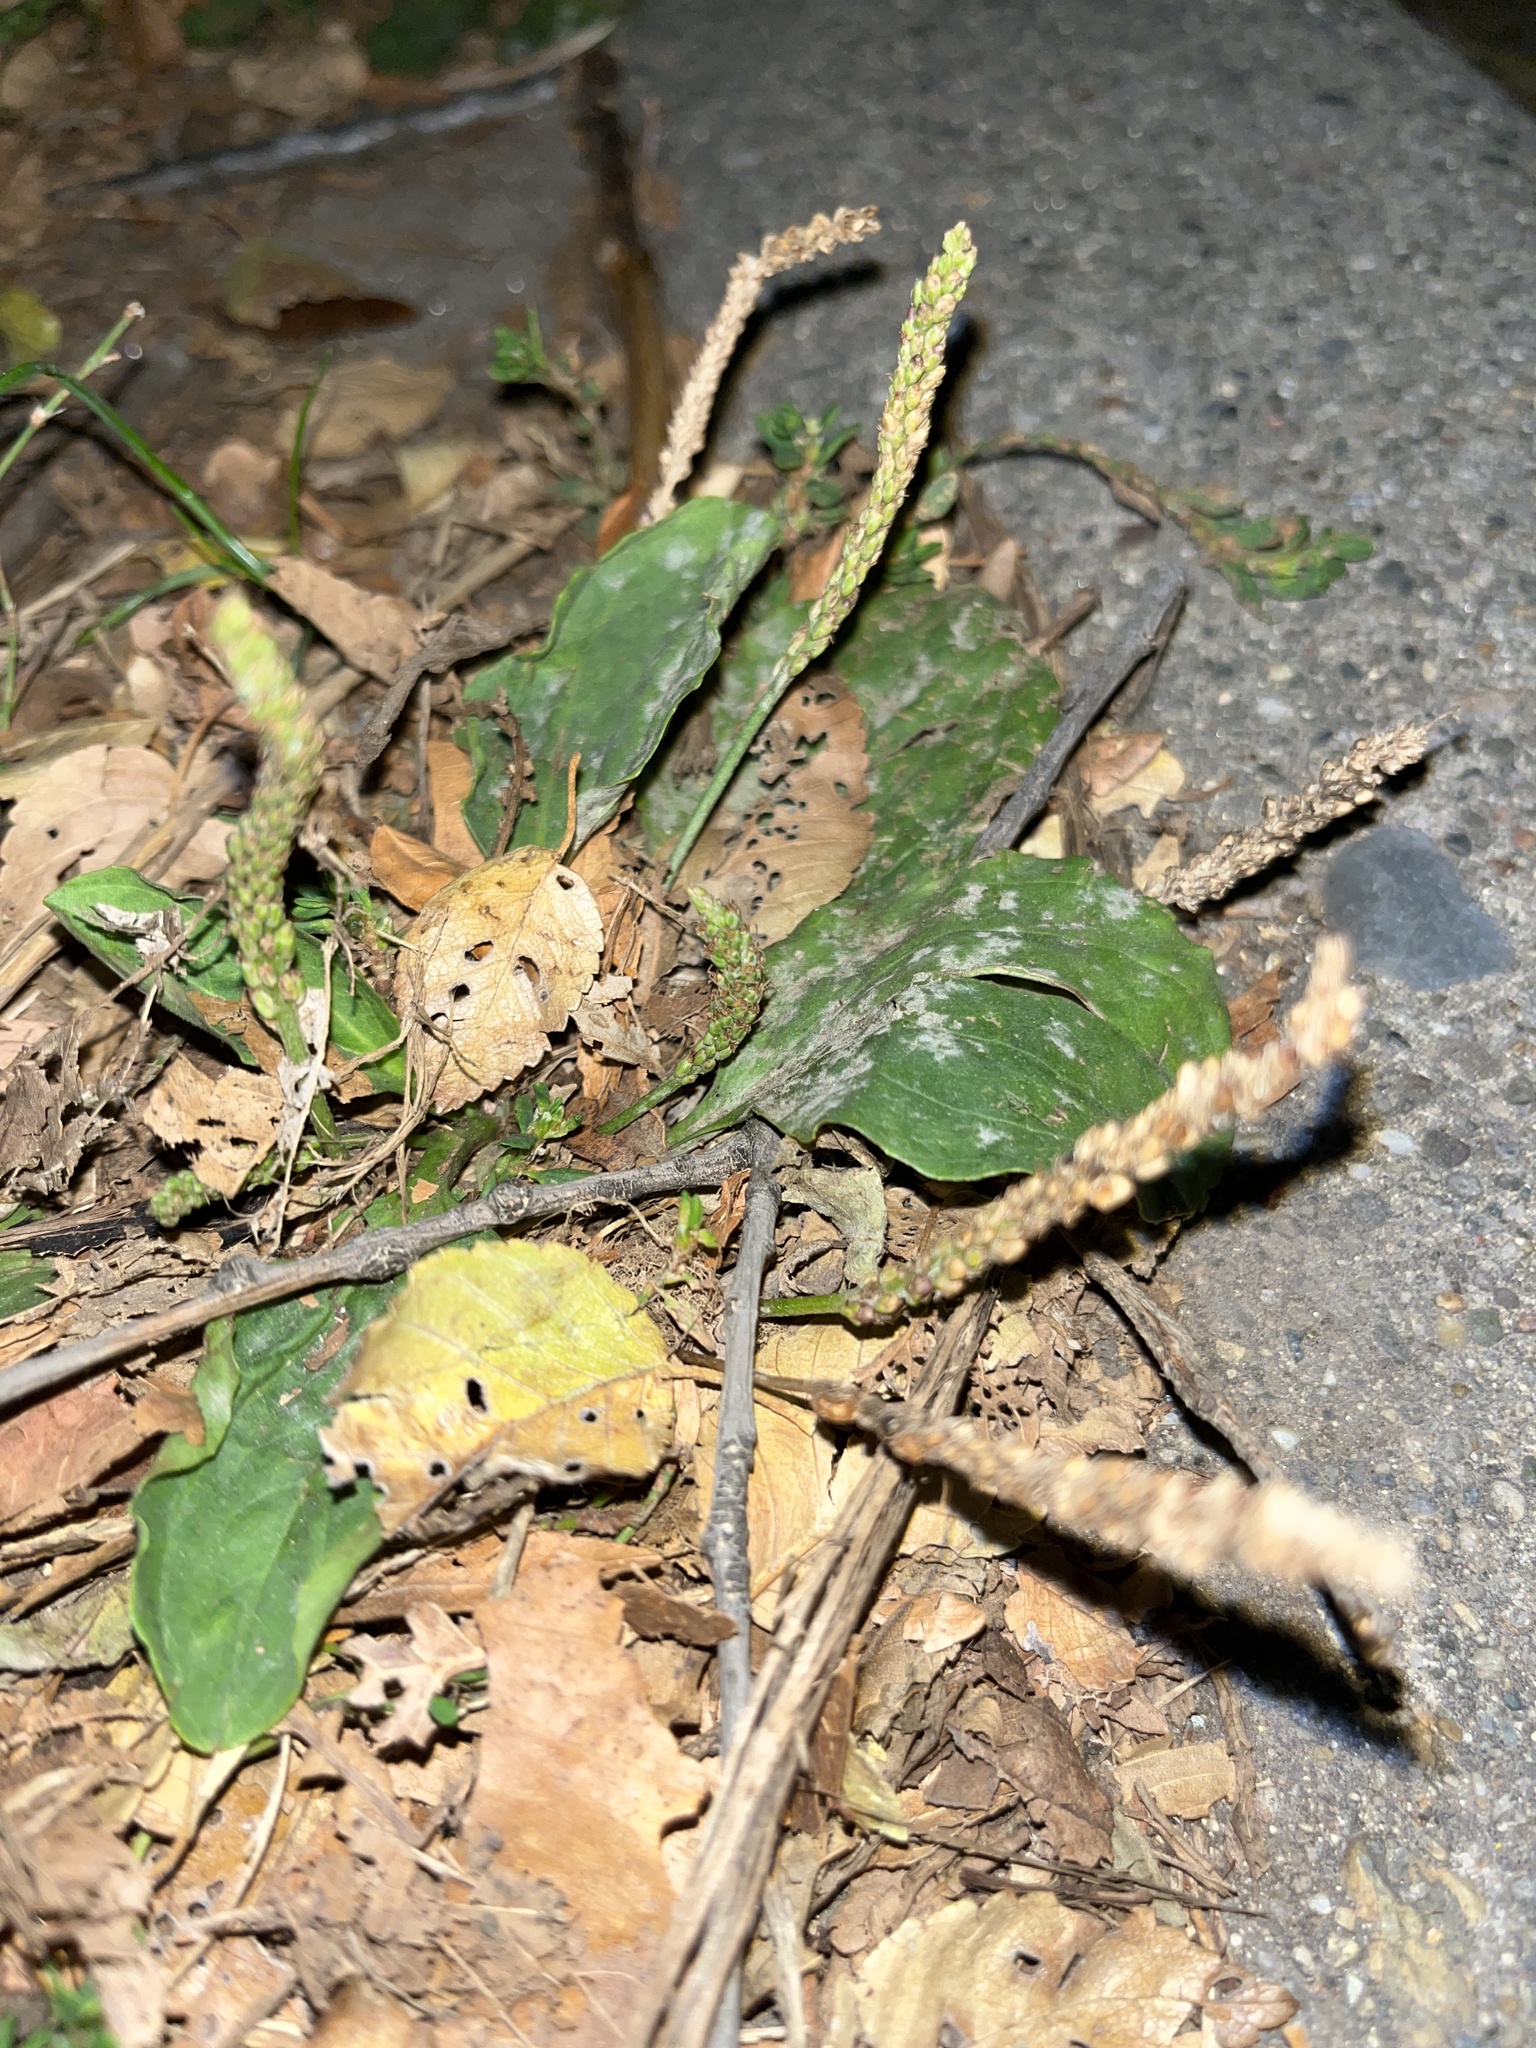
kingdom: Plantae
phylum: Tracheophyta
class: Magnoliopsida
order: Lamiales
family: Plantaginaceae
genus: Plantago
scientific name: Plantago major
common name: Common plantain
